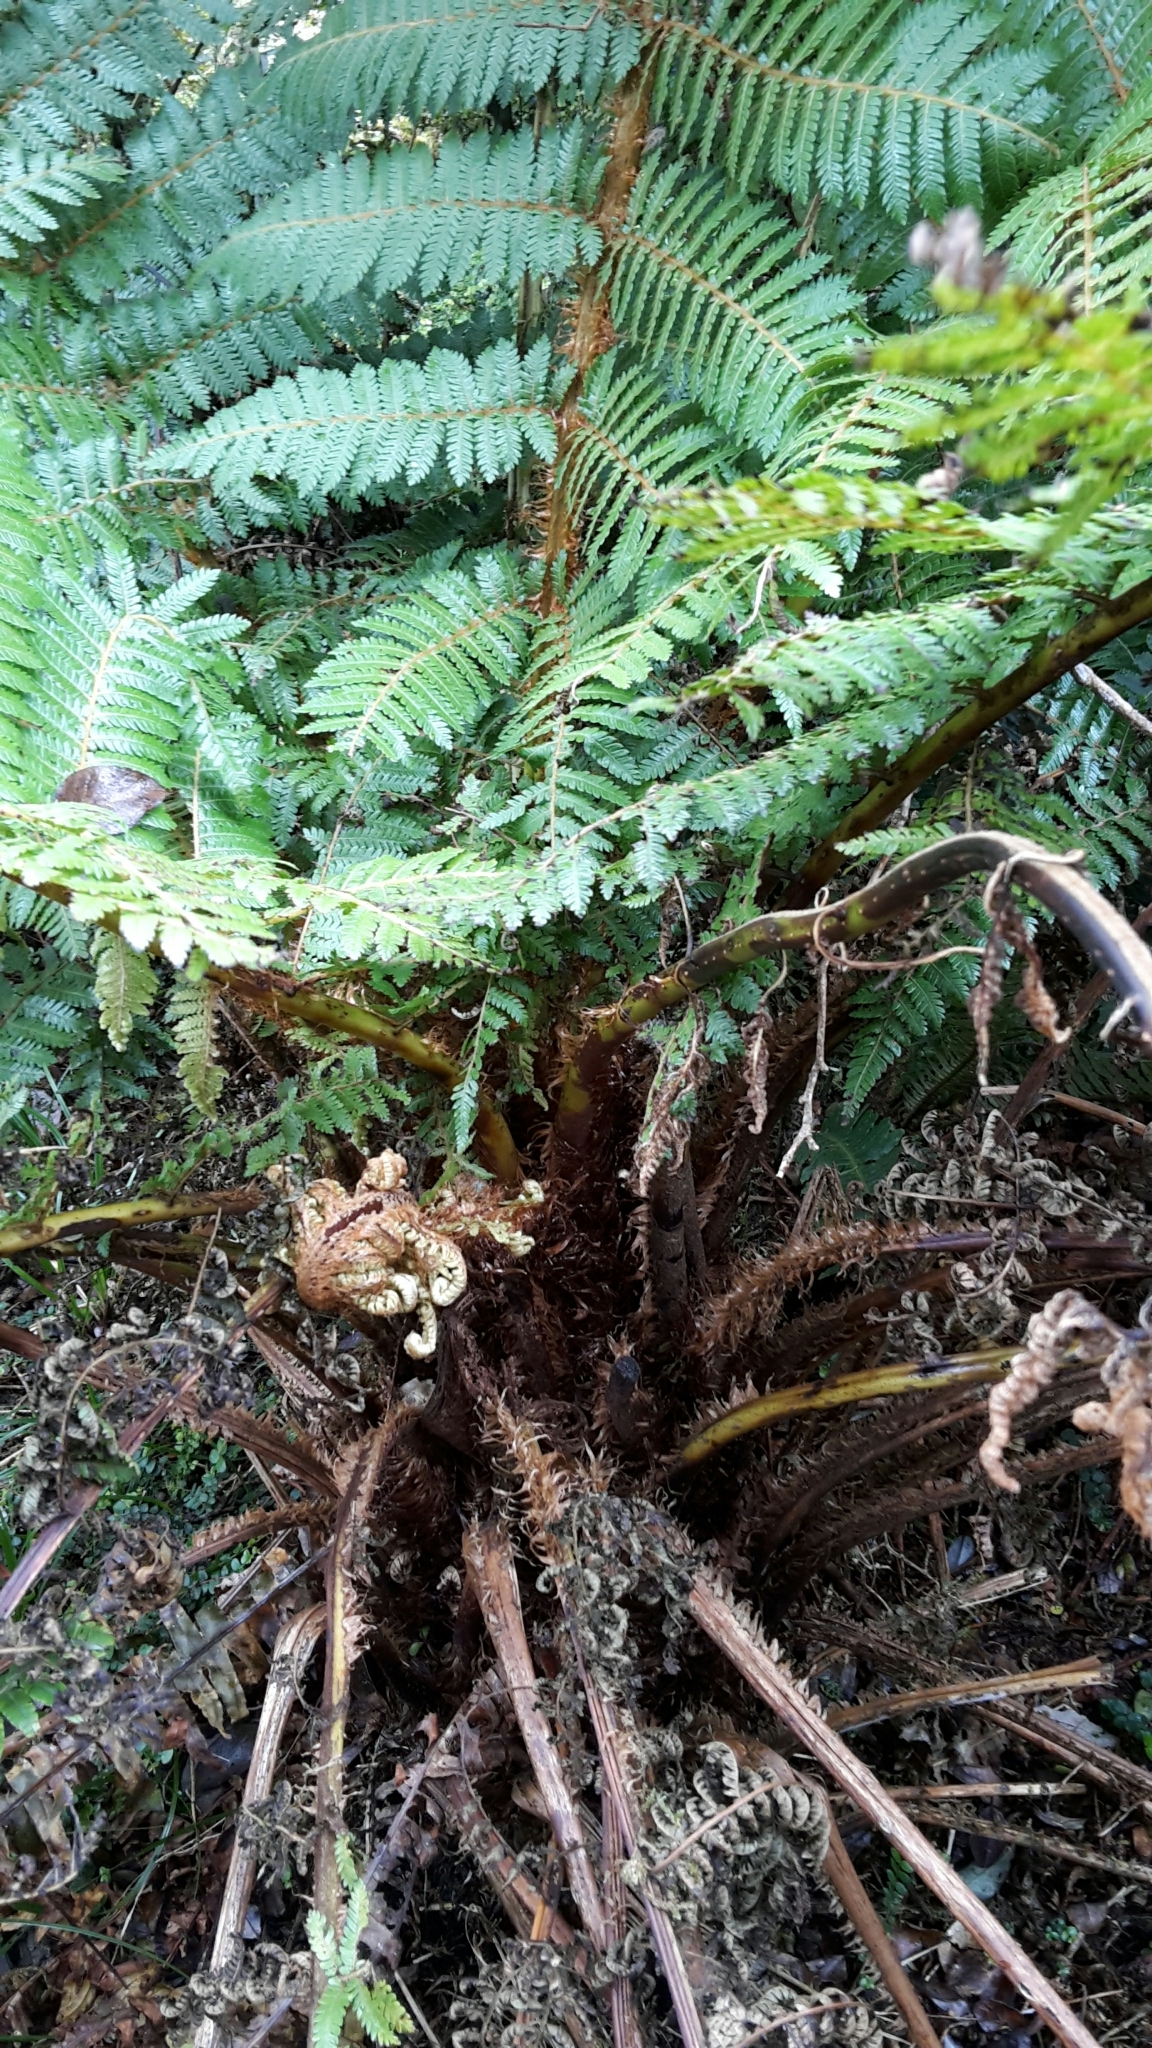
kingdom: Plantae
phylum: Tracheophyta
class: Polypodiopsida
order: Cyatheales
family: Cyatheaceae
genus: Alsophila
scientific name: Alsophila smithii
